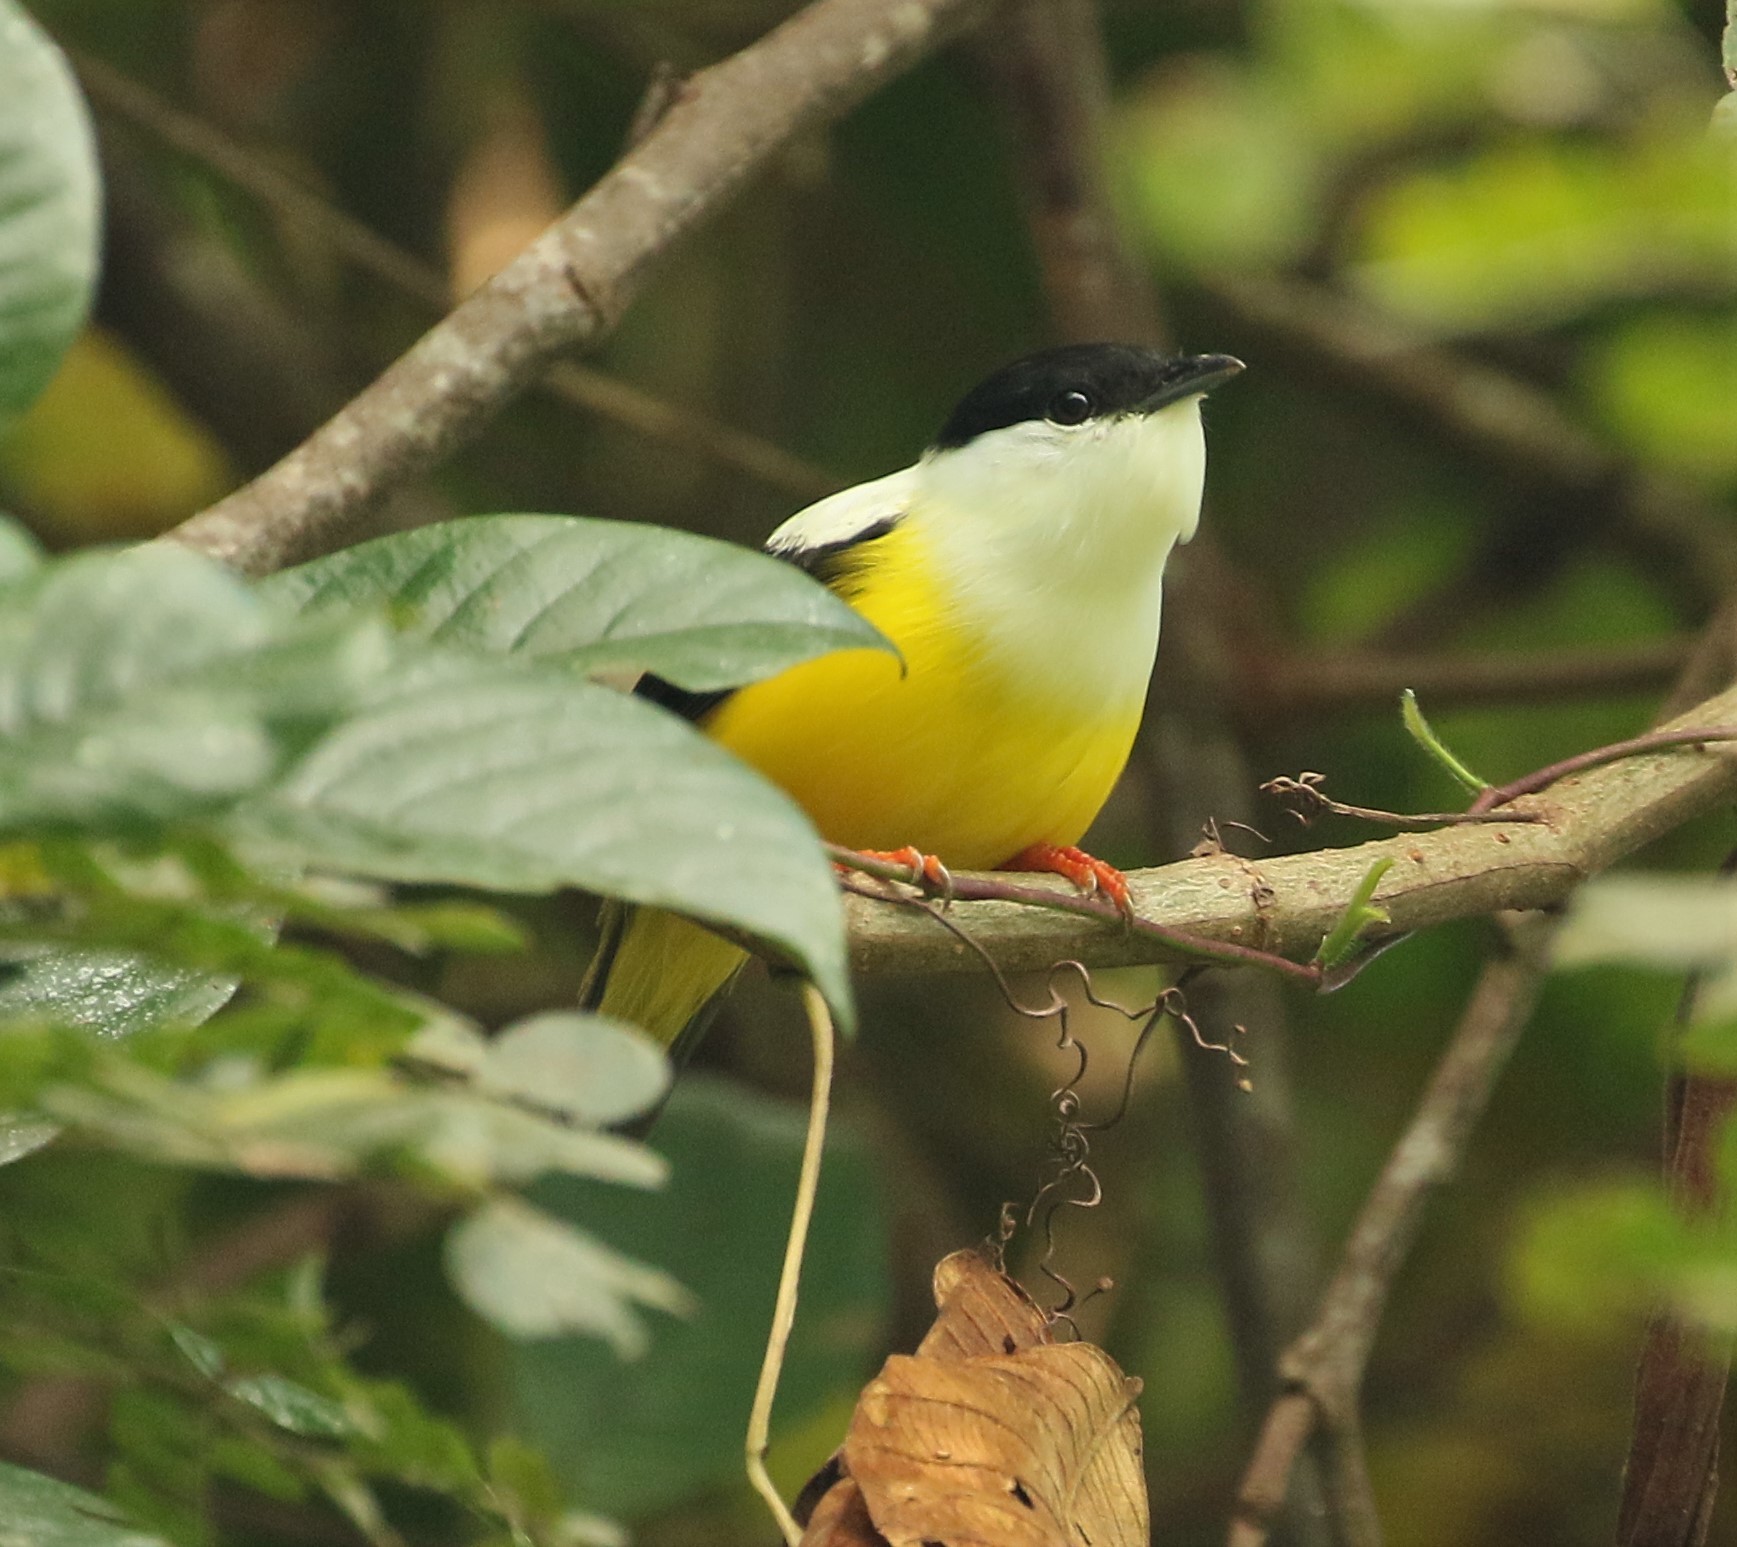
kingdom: Animalia
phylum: Chordata
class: Aves
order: Passeriformes
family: Pipridae
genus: Manacus
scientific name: Manacus candei
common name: White-collared manakin
